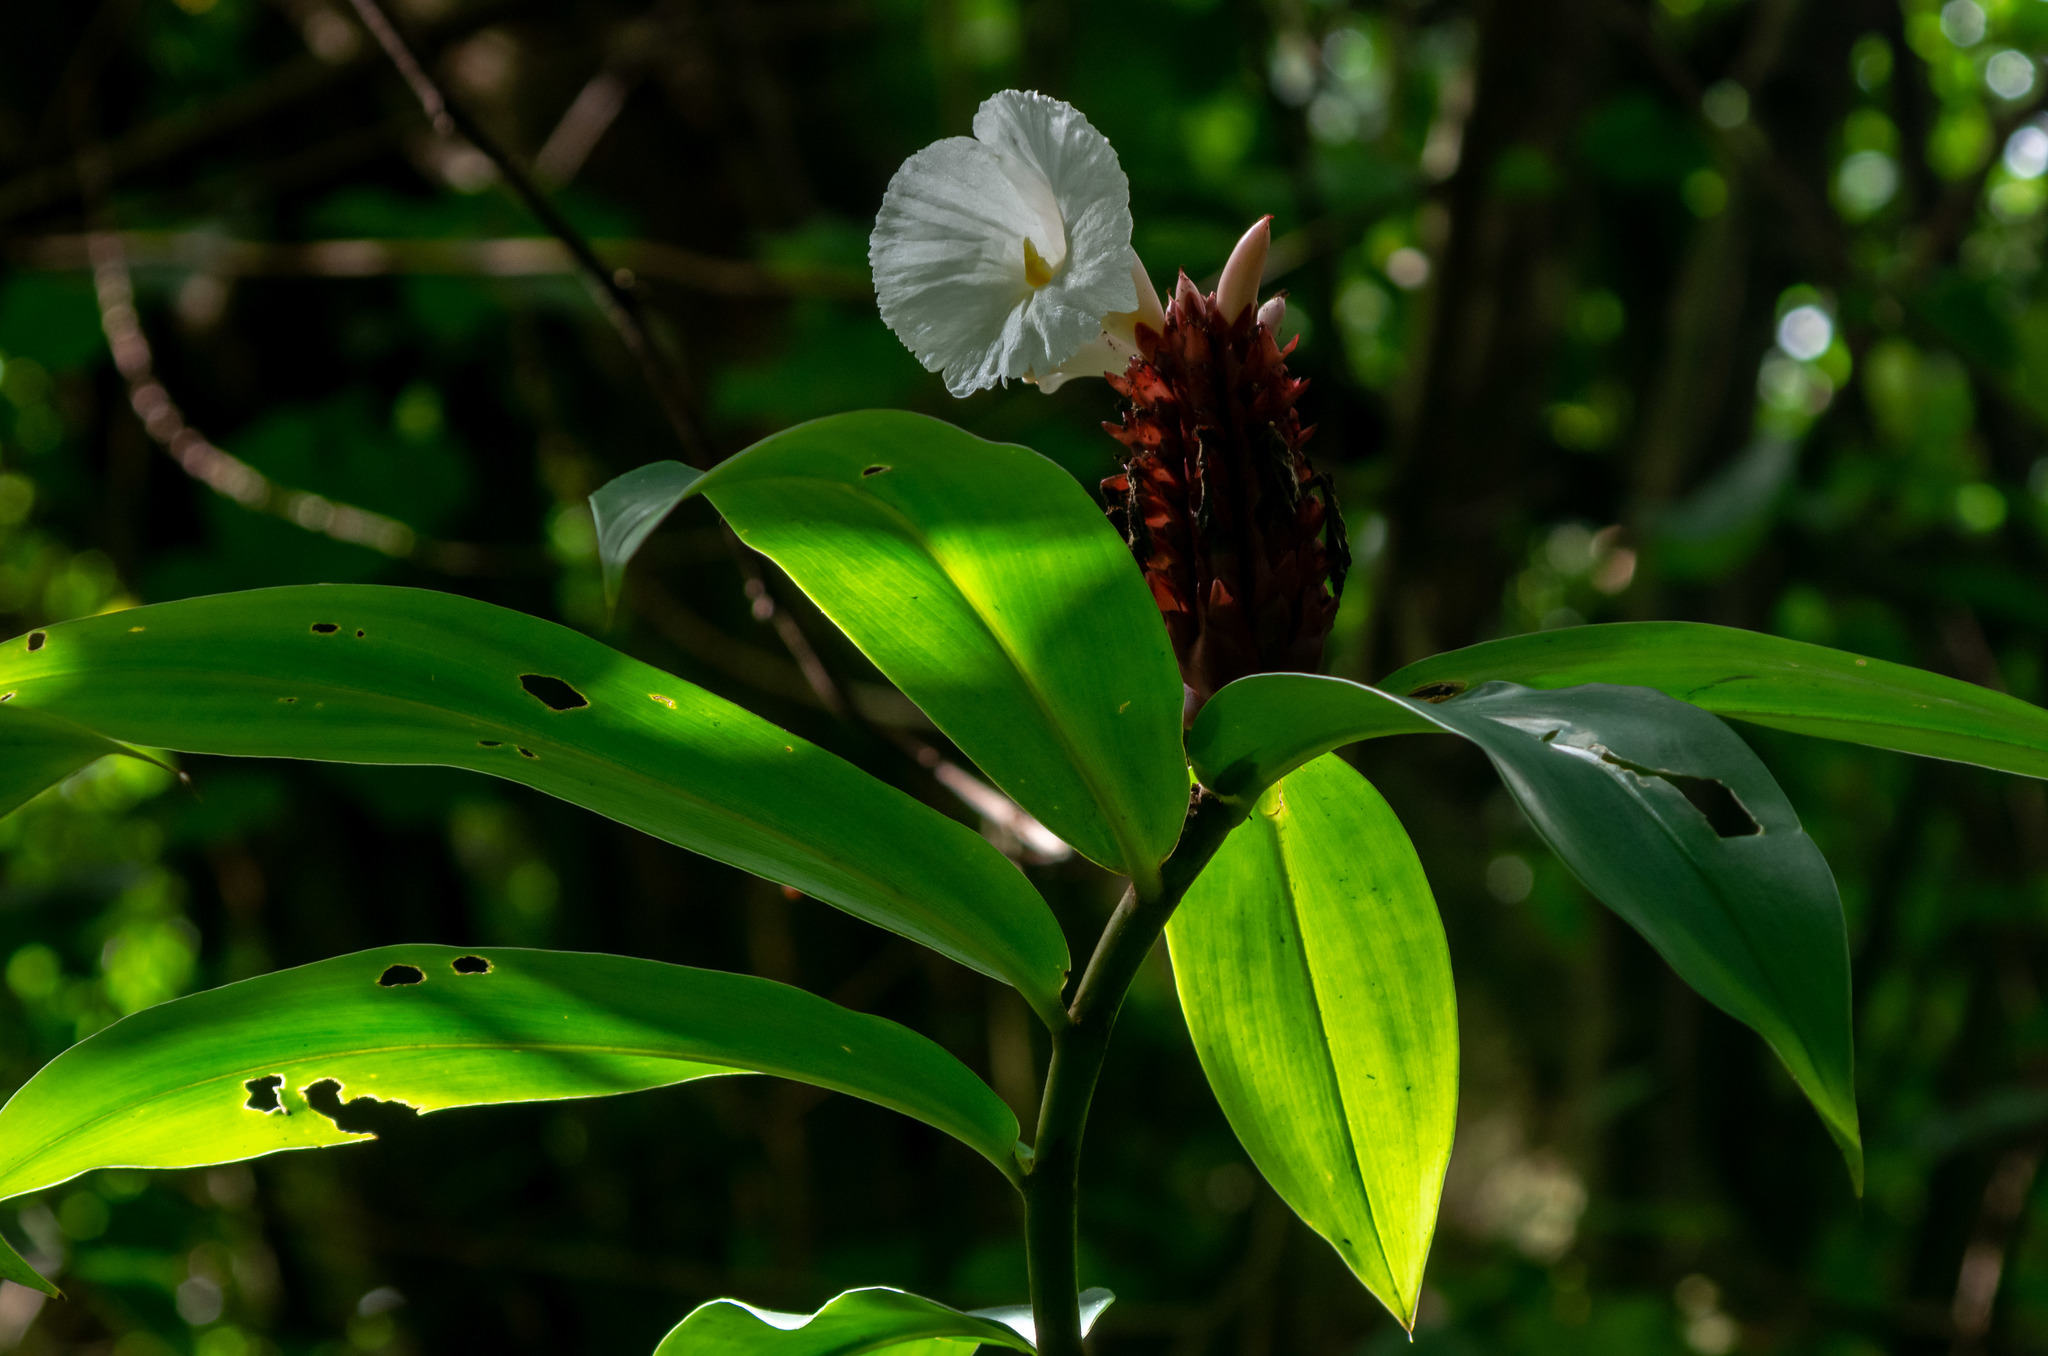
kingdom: Plantae
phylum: Tracheophyta
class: Liliopsida
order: Zingiberales
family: Costaceae
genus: Hellenia
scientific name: Hellenia speciosa
